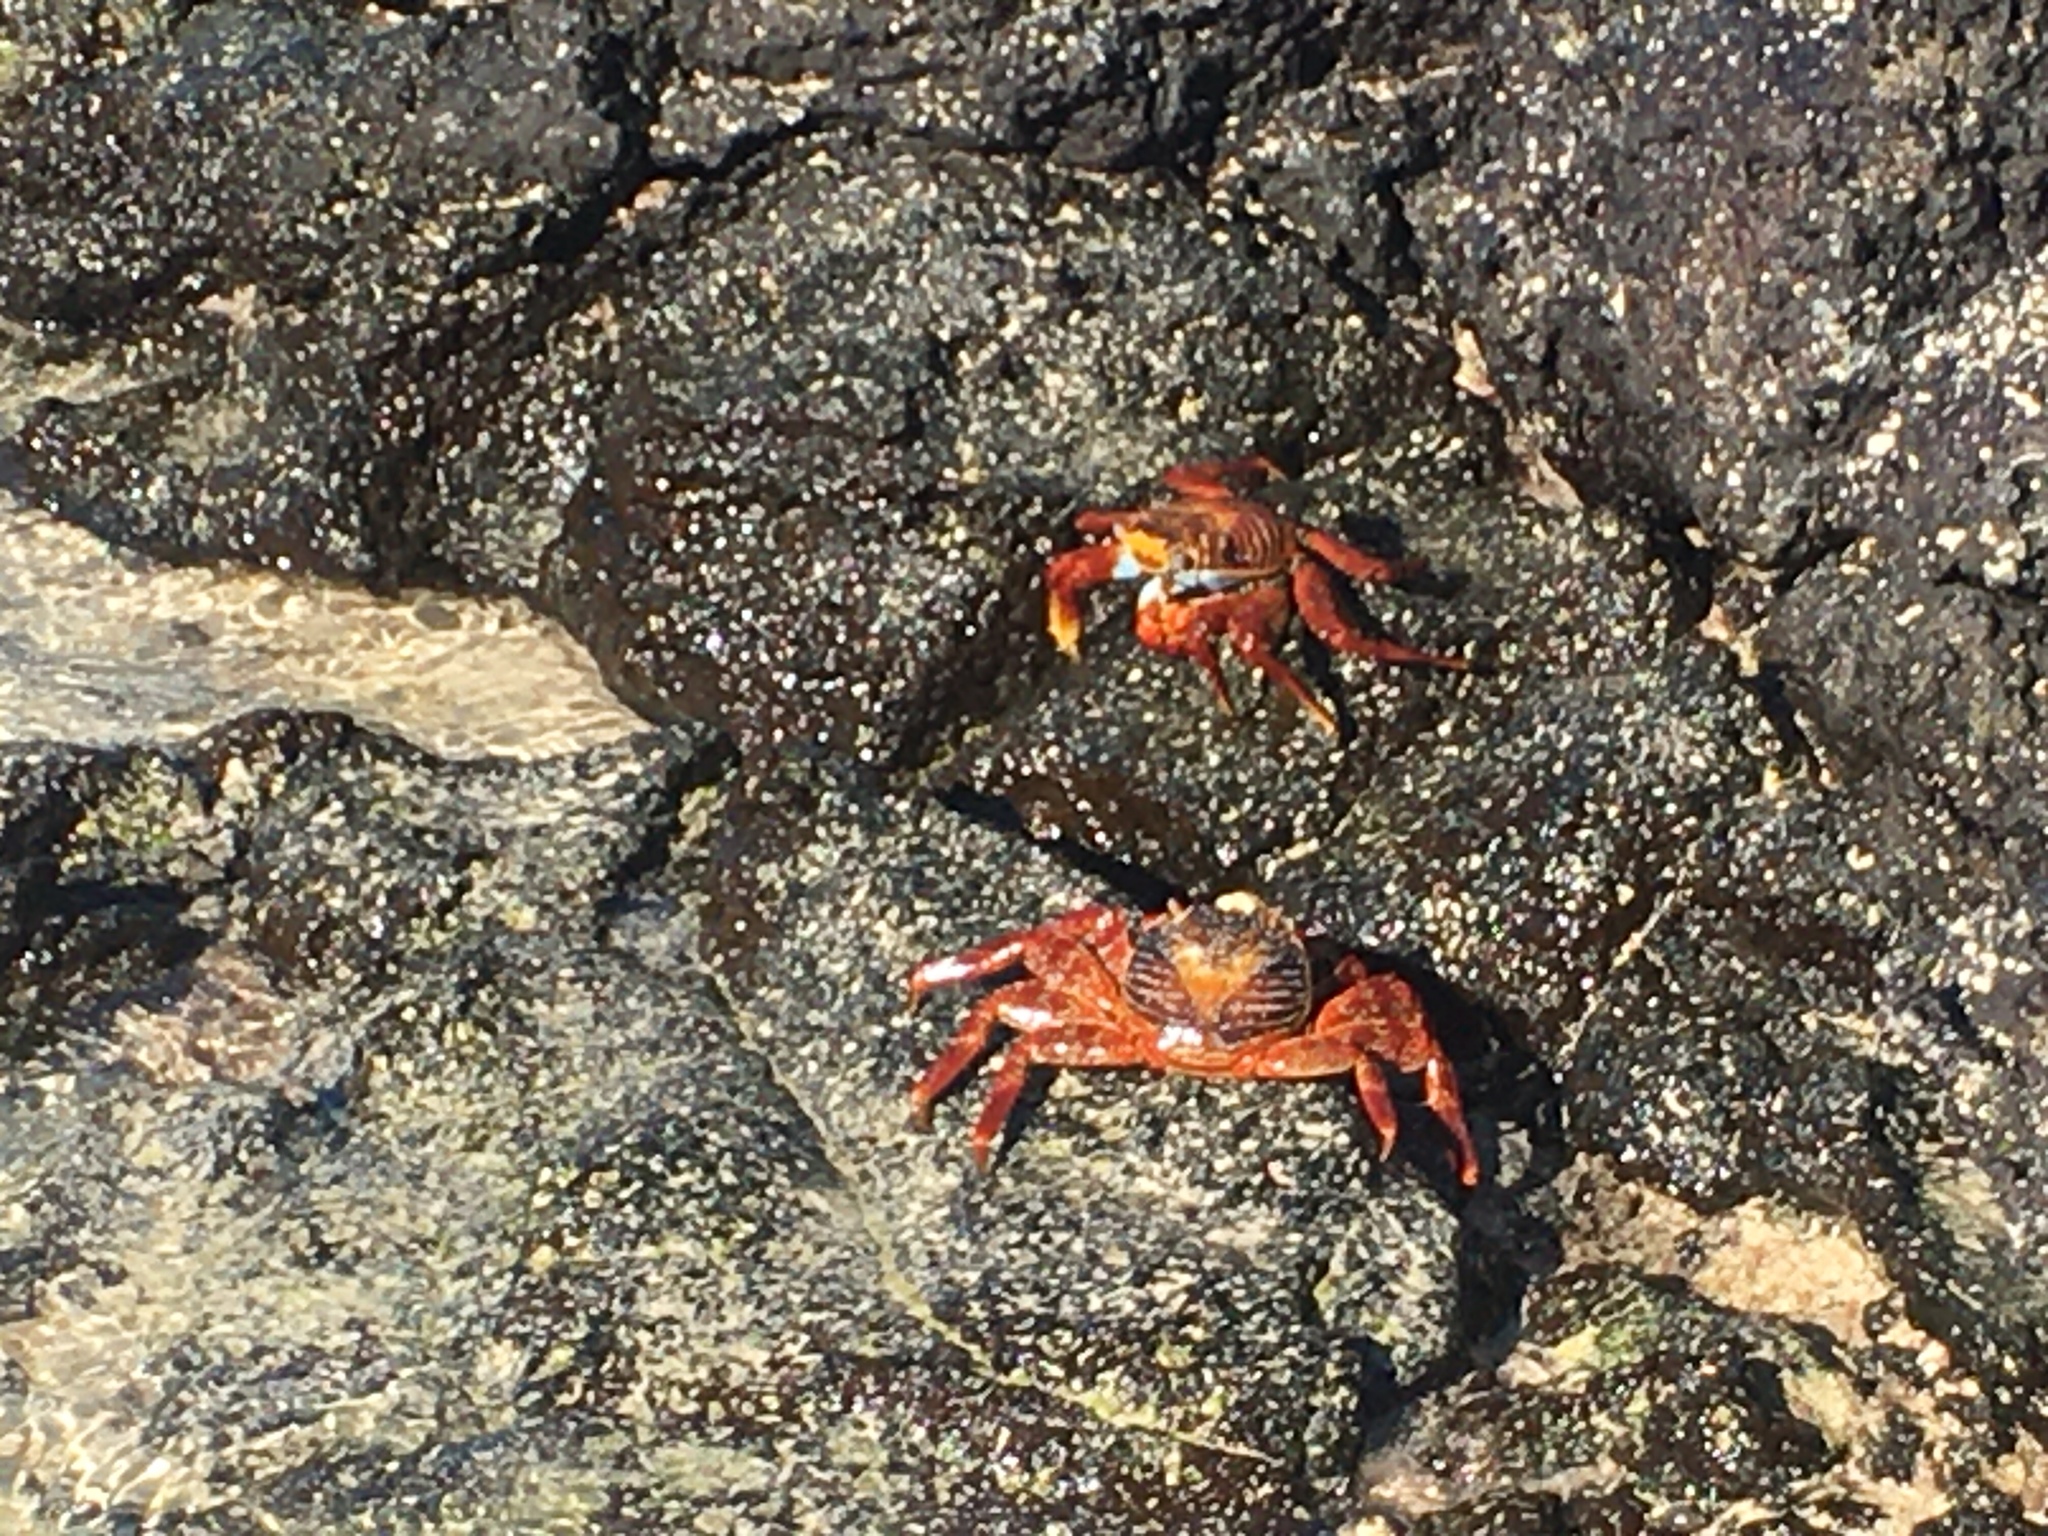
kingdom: Animalia
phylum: Arthropoda
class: Malacostraca
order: Decapoda
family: Grapsidae
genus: Grapsus
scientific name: Grapsus grapsus
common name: Sally lightfoot
